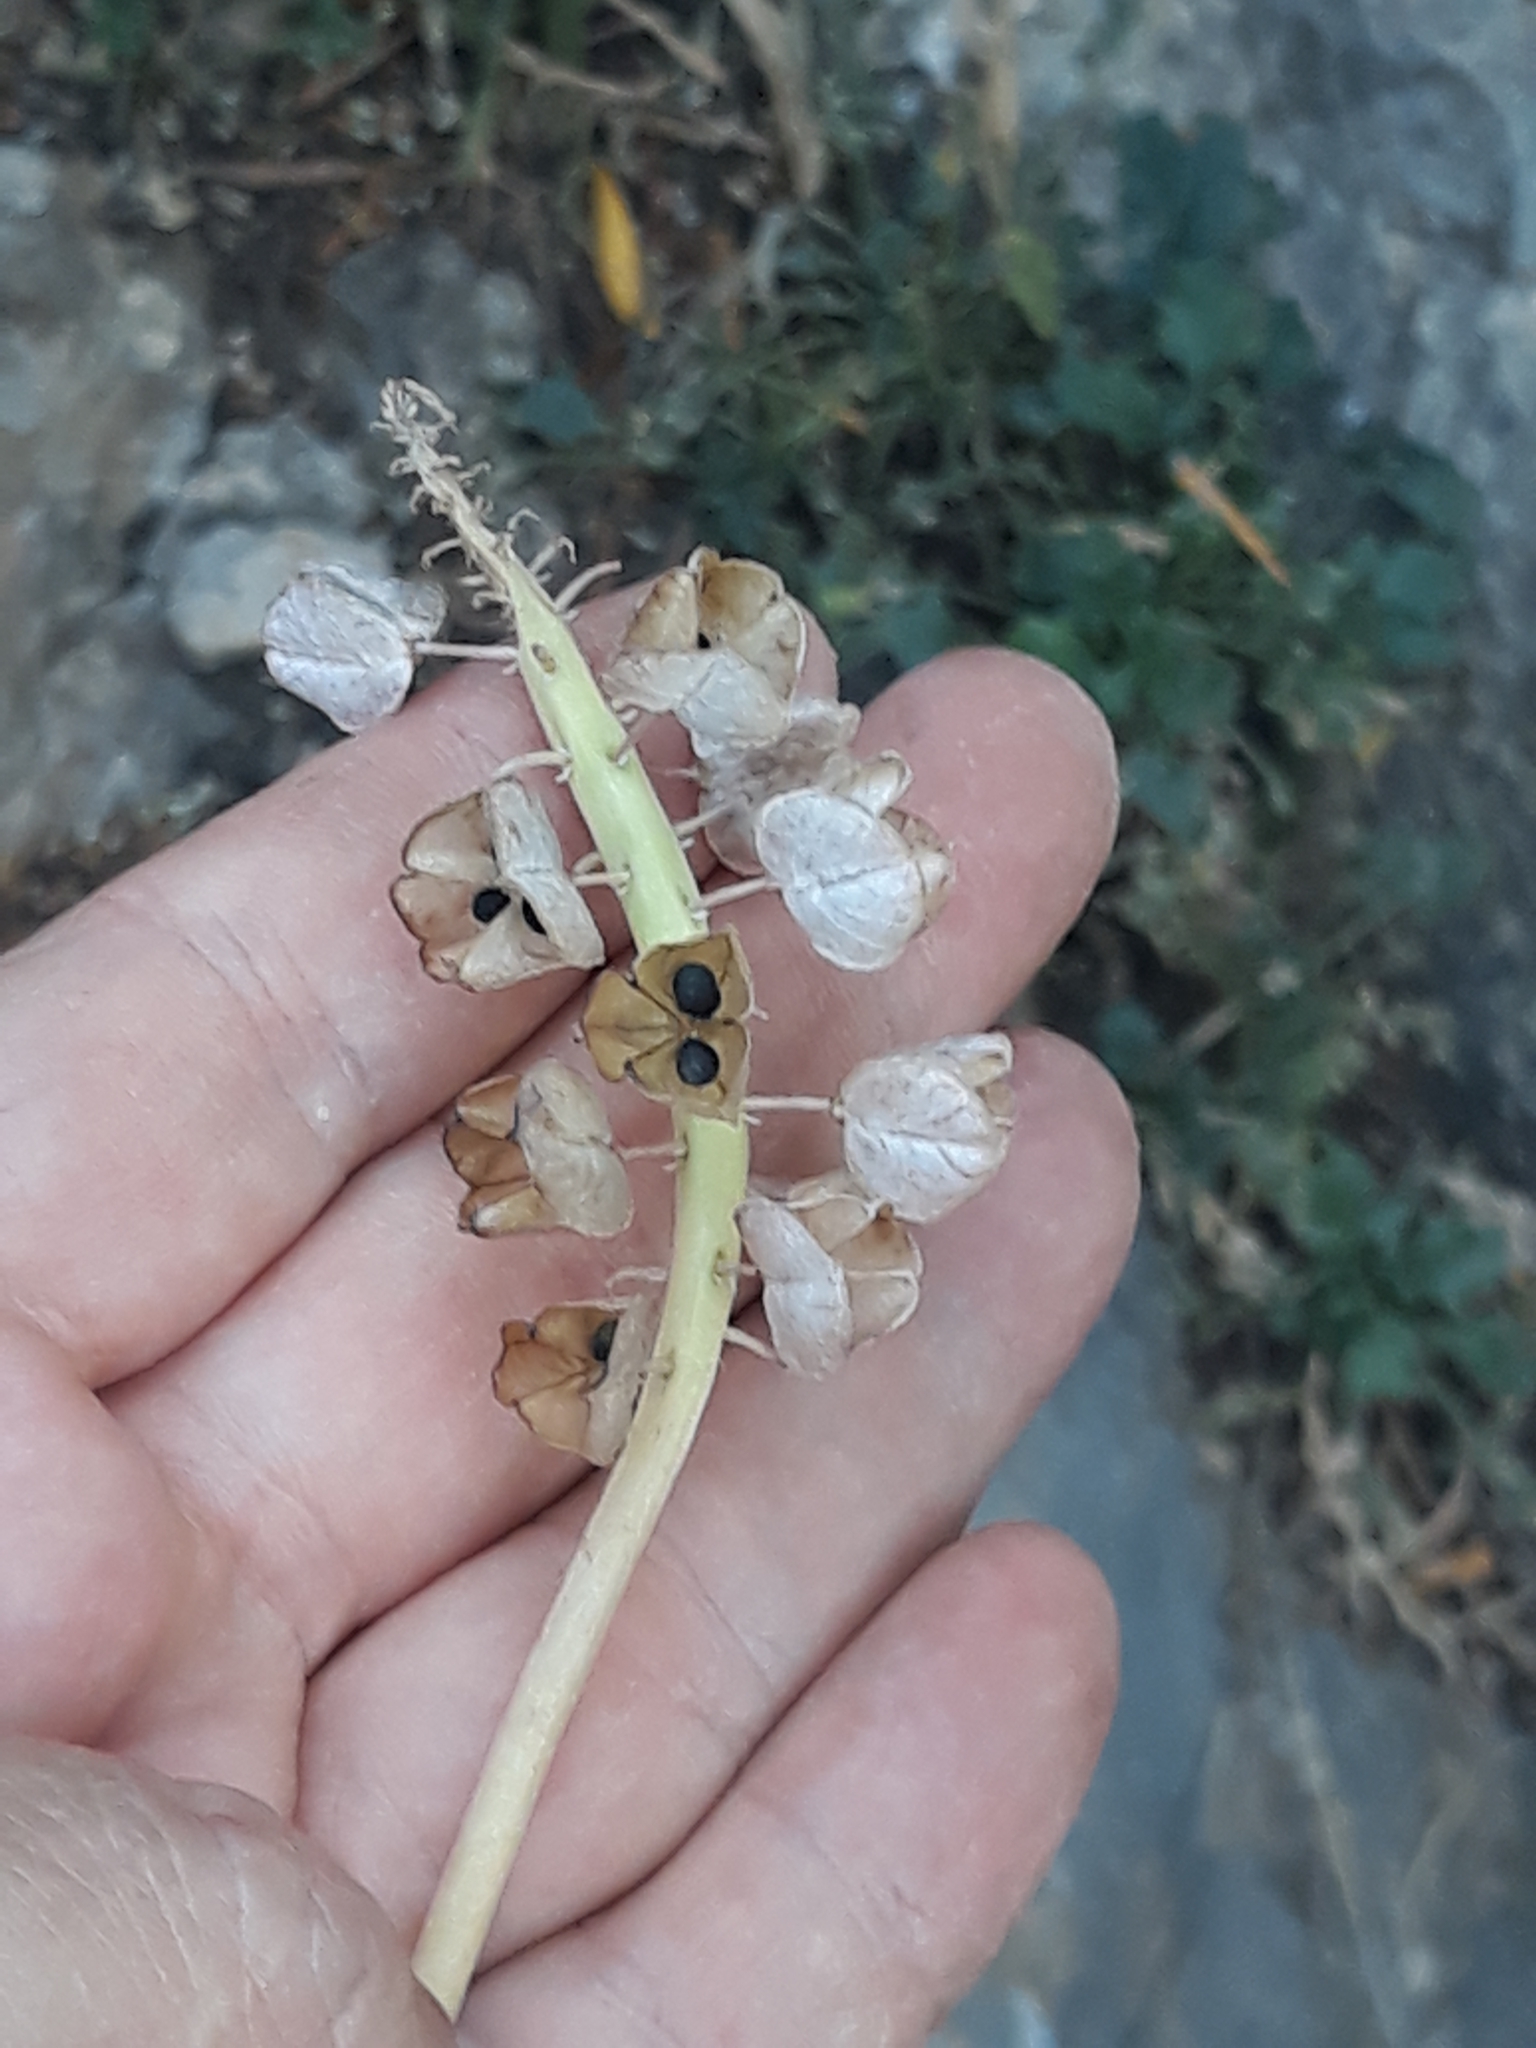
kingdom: Plantae
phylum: Tracheophyta
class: Liliopsida
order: Asparagales
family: Asparagaceae
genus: Muscari
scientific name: Muscari comosum
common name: Tassel hyacinth
